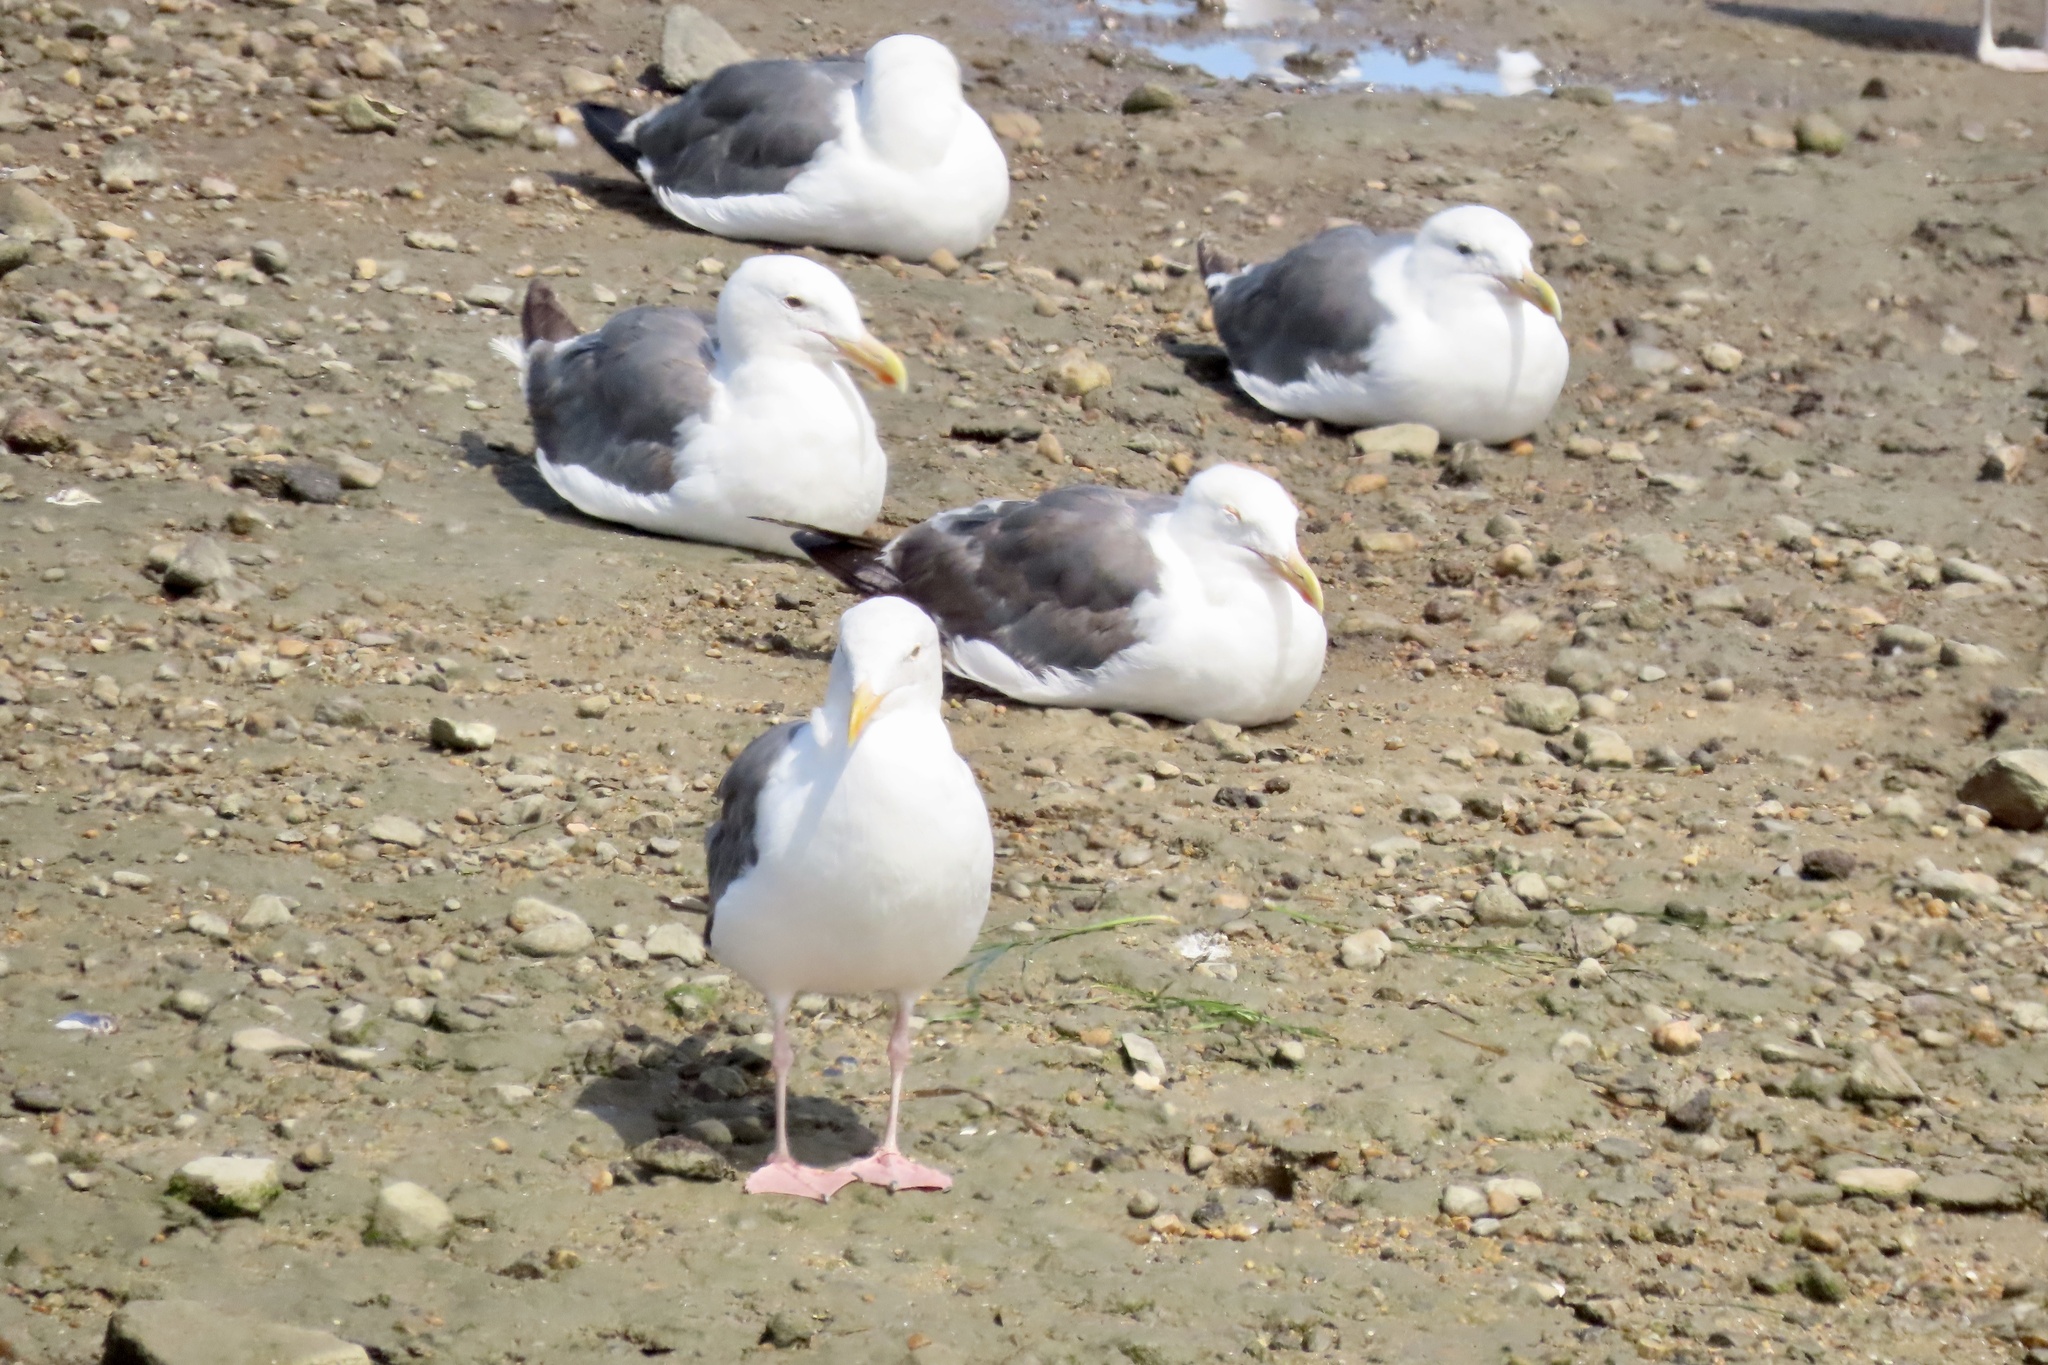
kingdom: Animalia
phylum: Chordata
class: Aves
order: Charadriiformes
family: Laridae
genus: Larus
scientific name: Larus occidentalis
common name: Western gull
